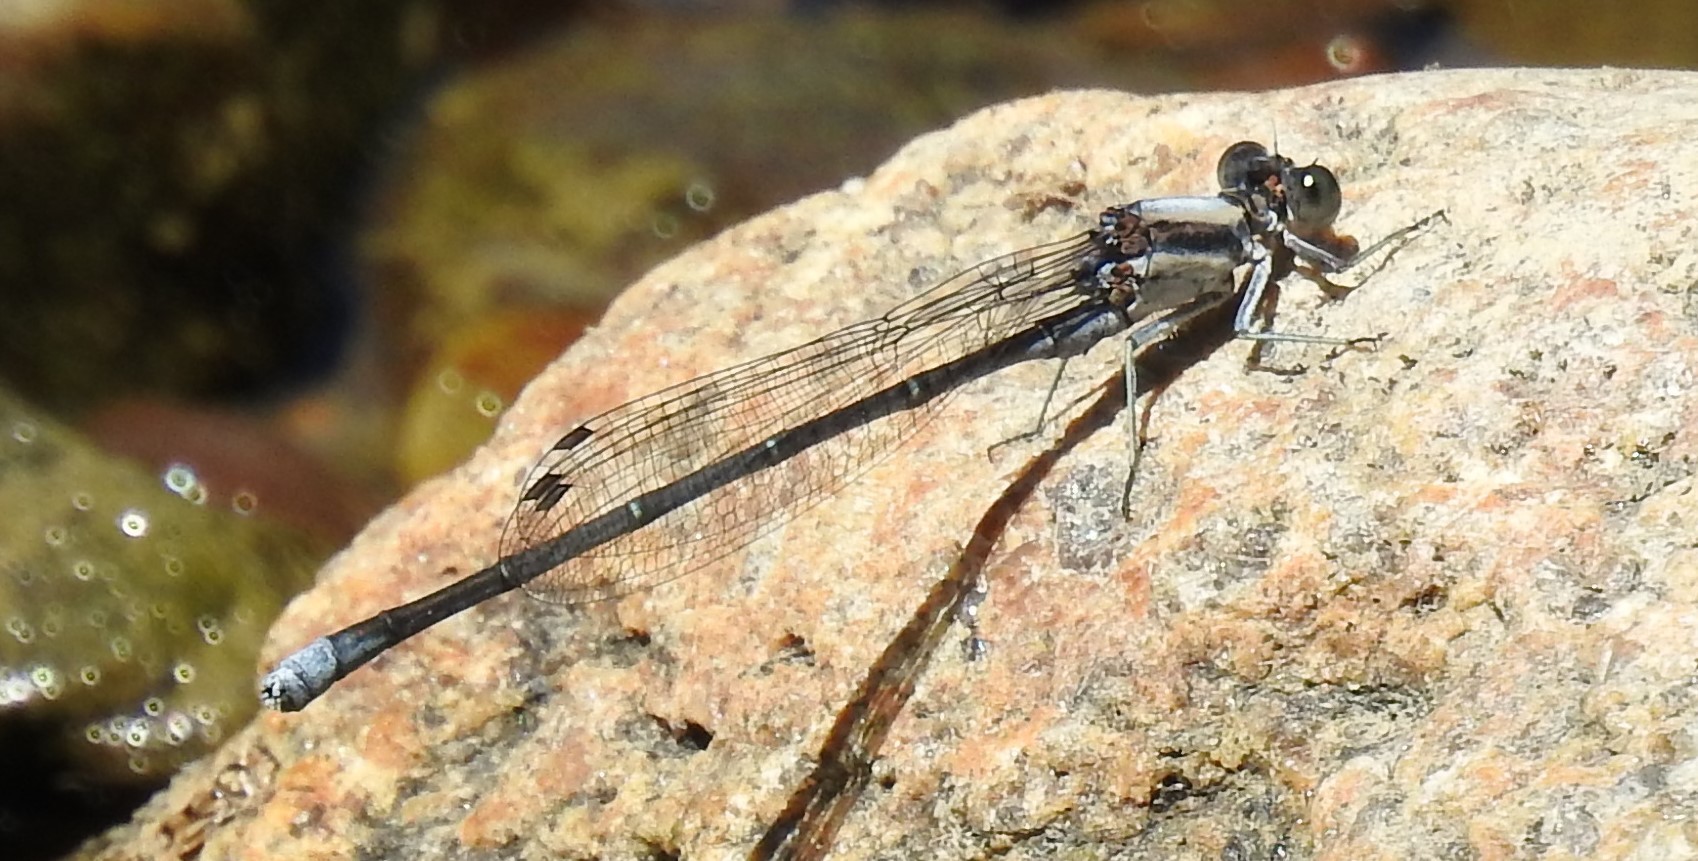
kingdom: Animalia
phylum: Arthropoda
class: Insecta
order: Odonata
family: Coenagrionidae
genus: Argia
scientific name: Argia moesta
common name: Powdered dancer
